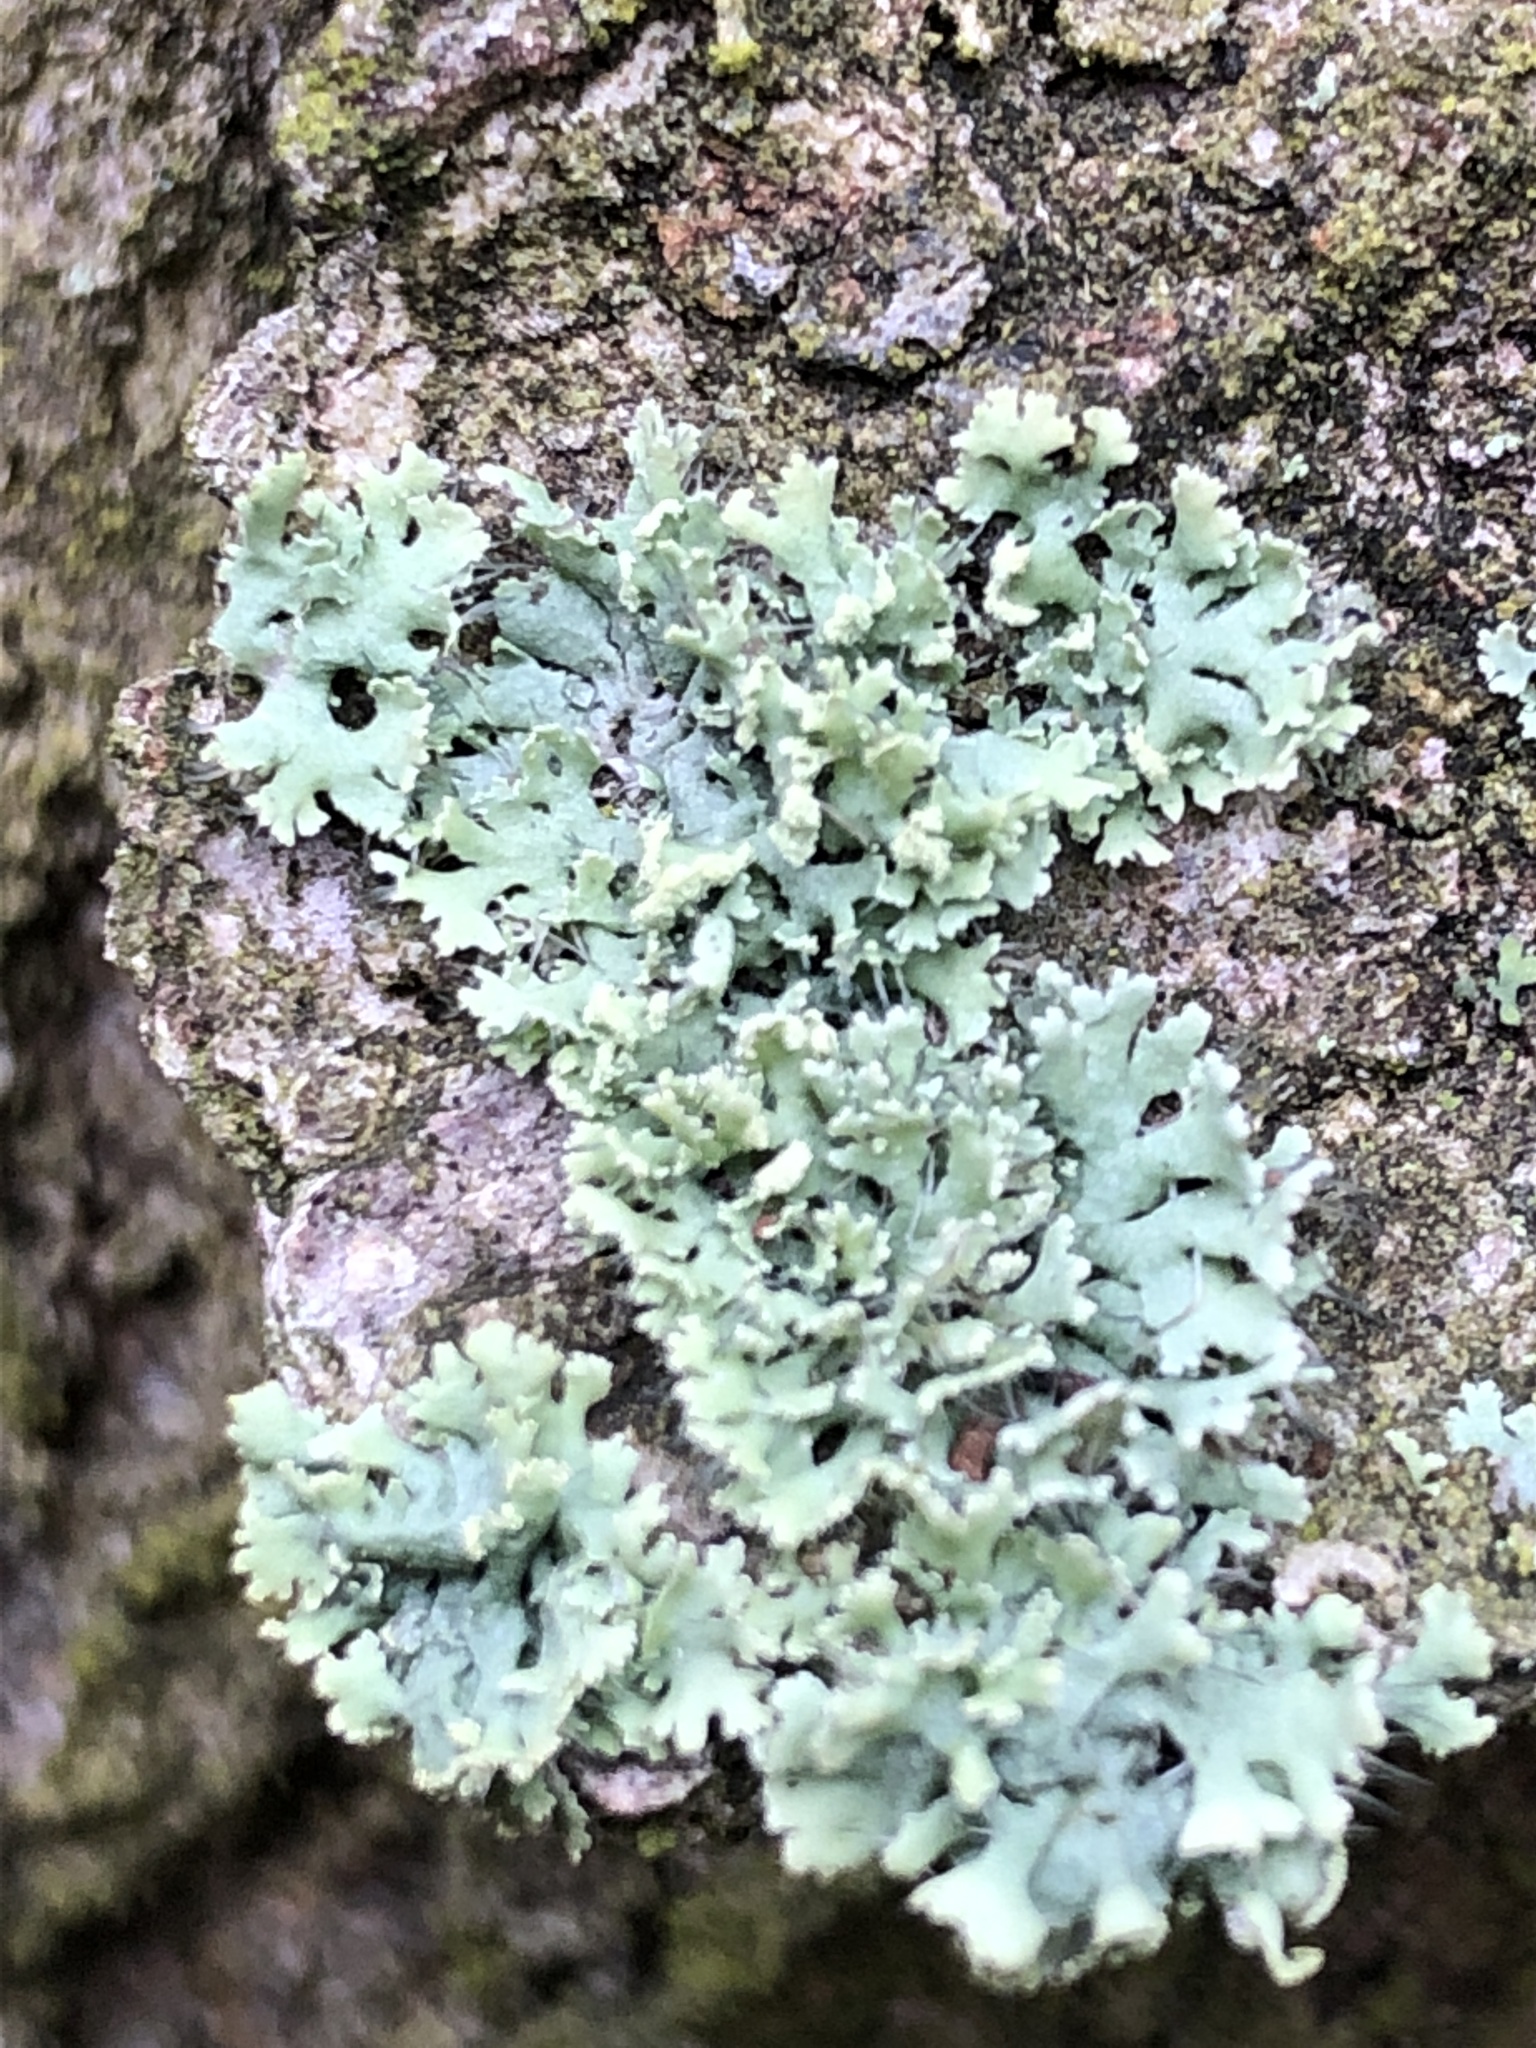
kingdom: Fungi
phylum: Ascomycota
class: Lecanoromycetes
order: Caliciales
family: Physciaceae
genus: Physcia
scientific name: Physcia tenella
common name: Fringed rosette lichen
